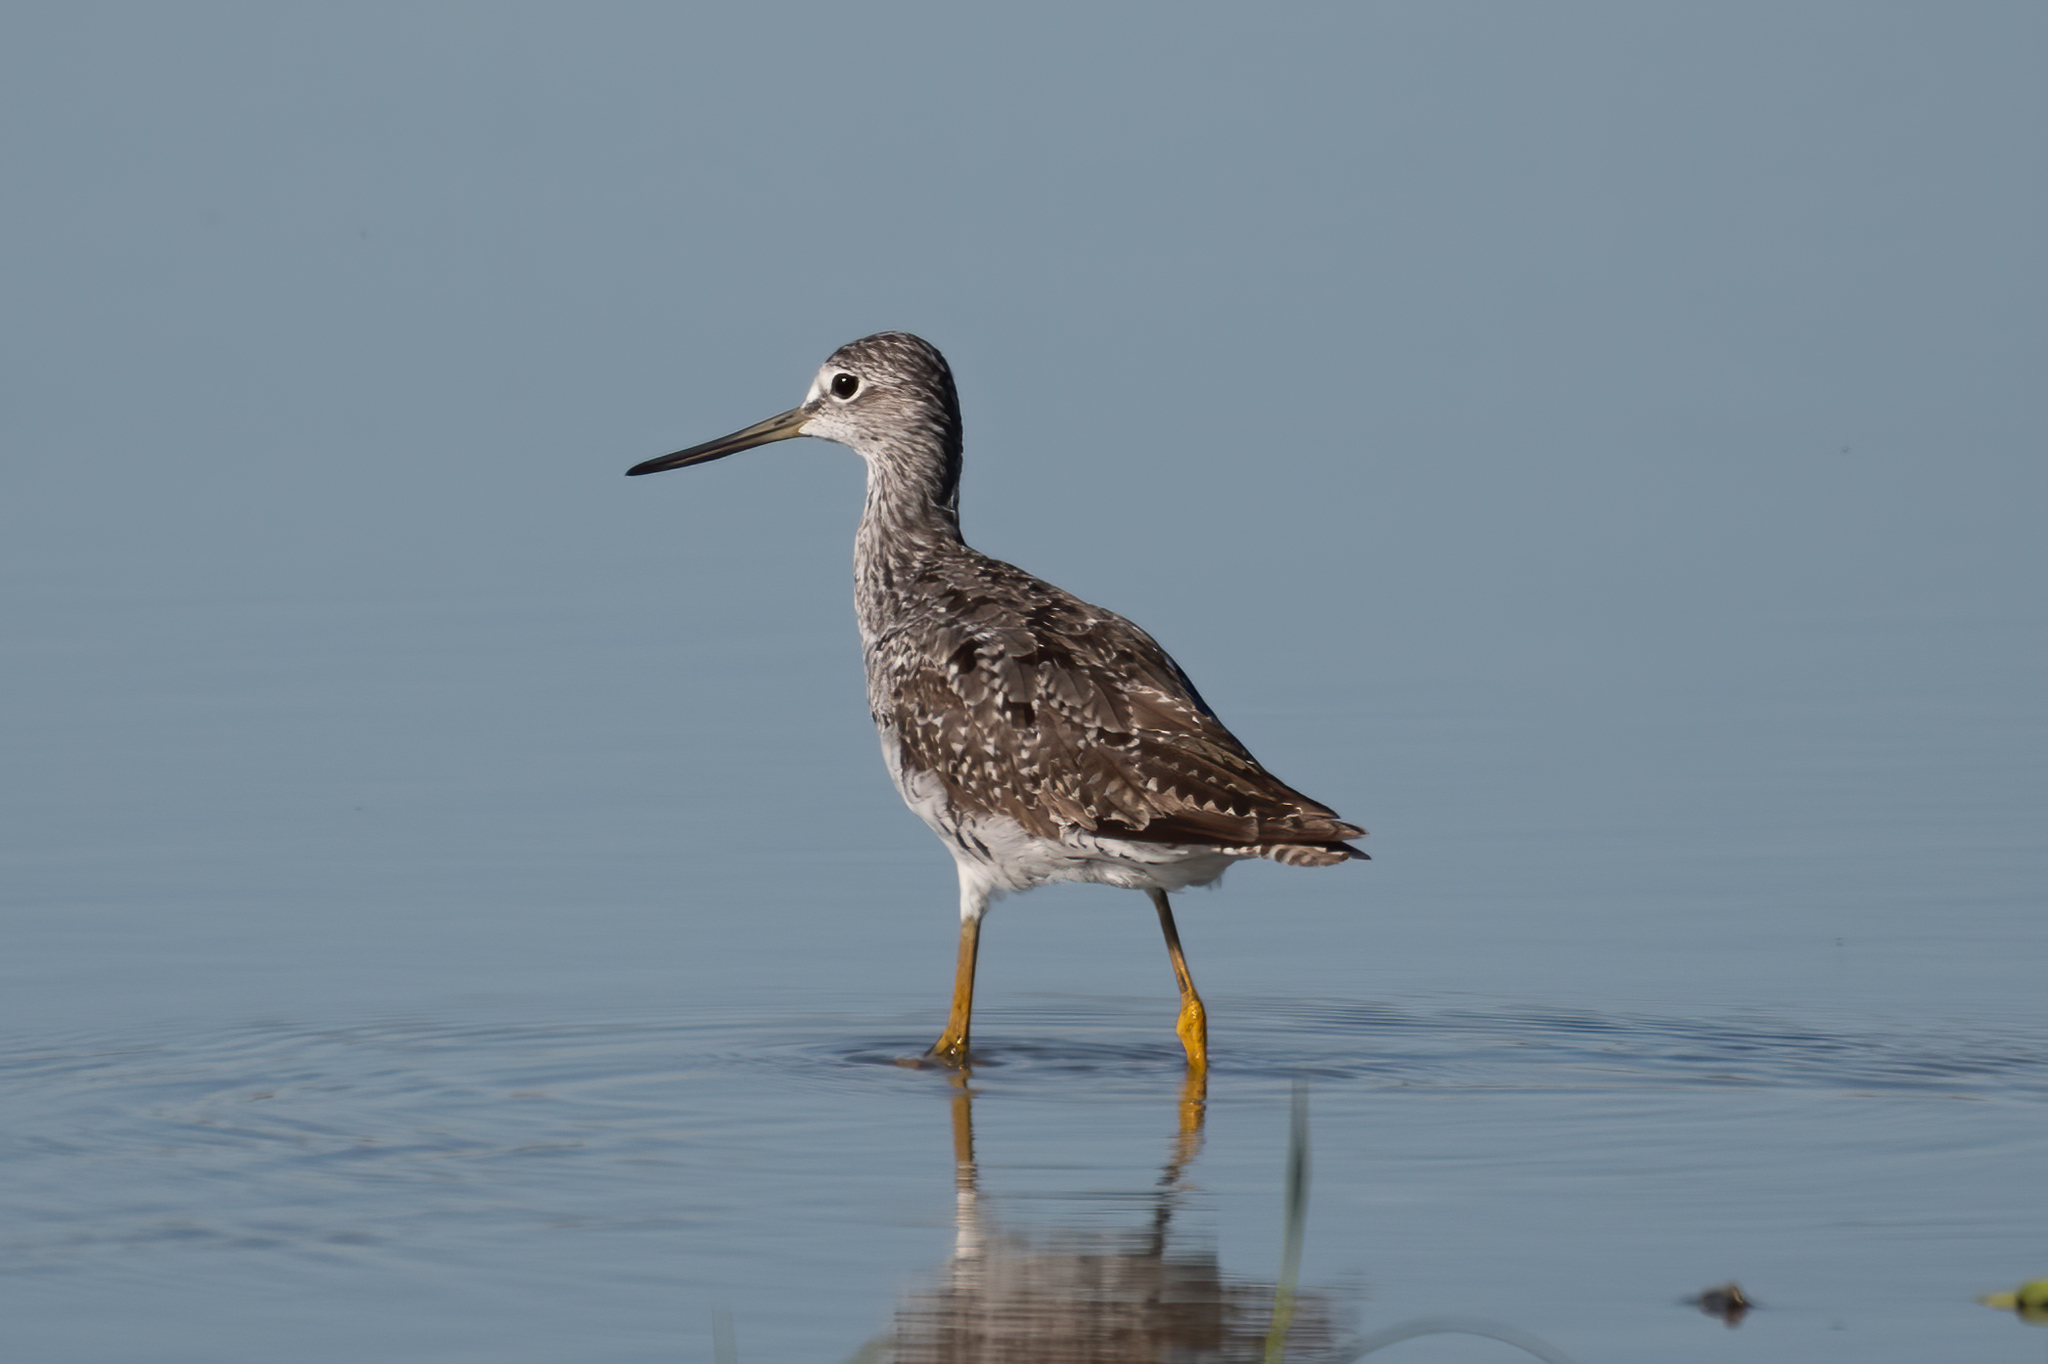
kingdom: Animalia
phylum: Chordata
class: Aves
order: Charadriiformes
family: Scolopacidae
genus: Tringa
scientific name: Tringa melanoleuca
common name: Greater yellowlegs
